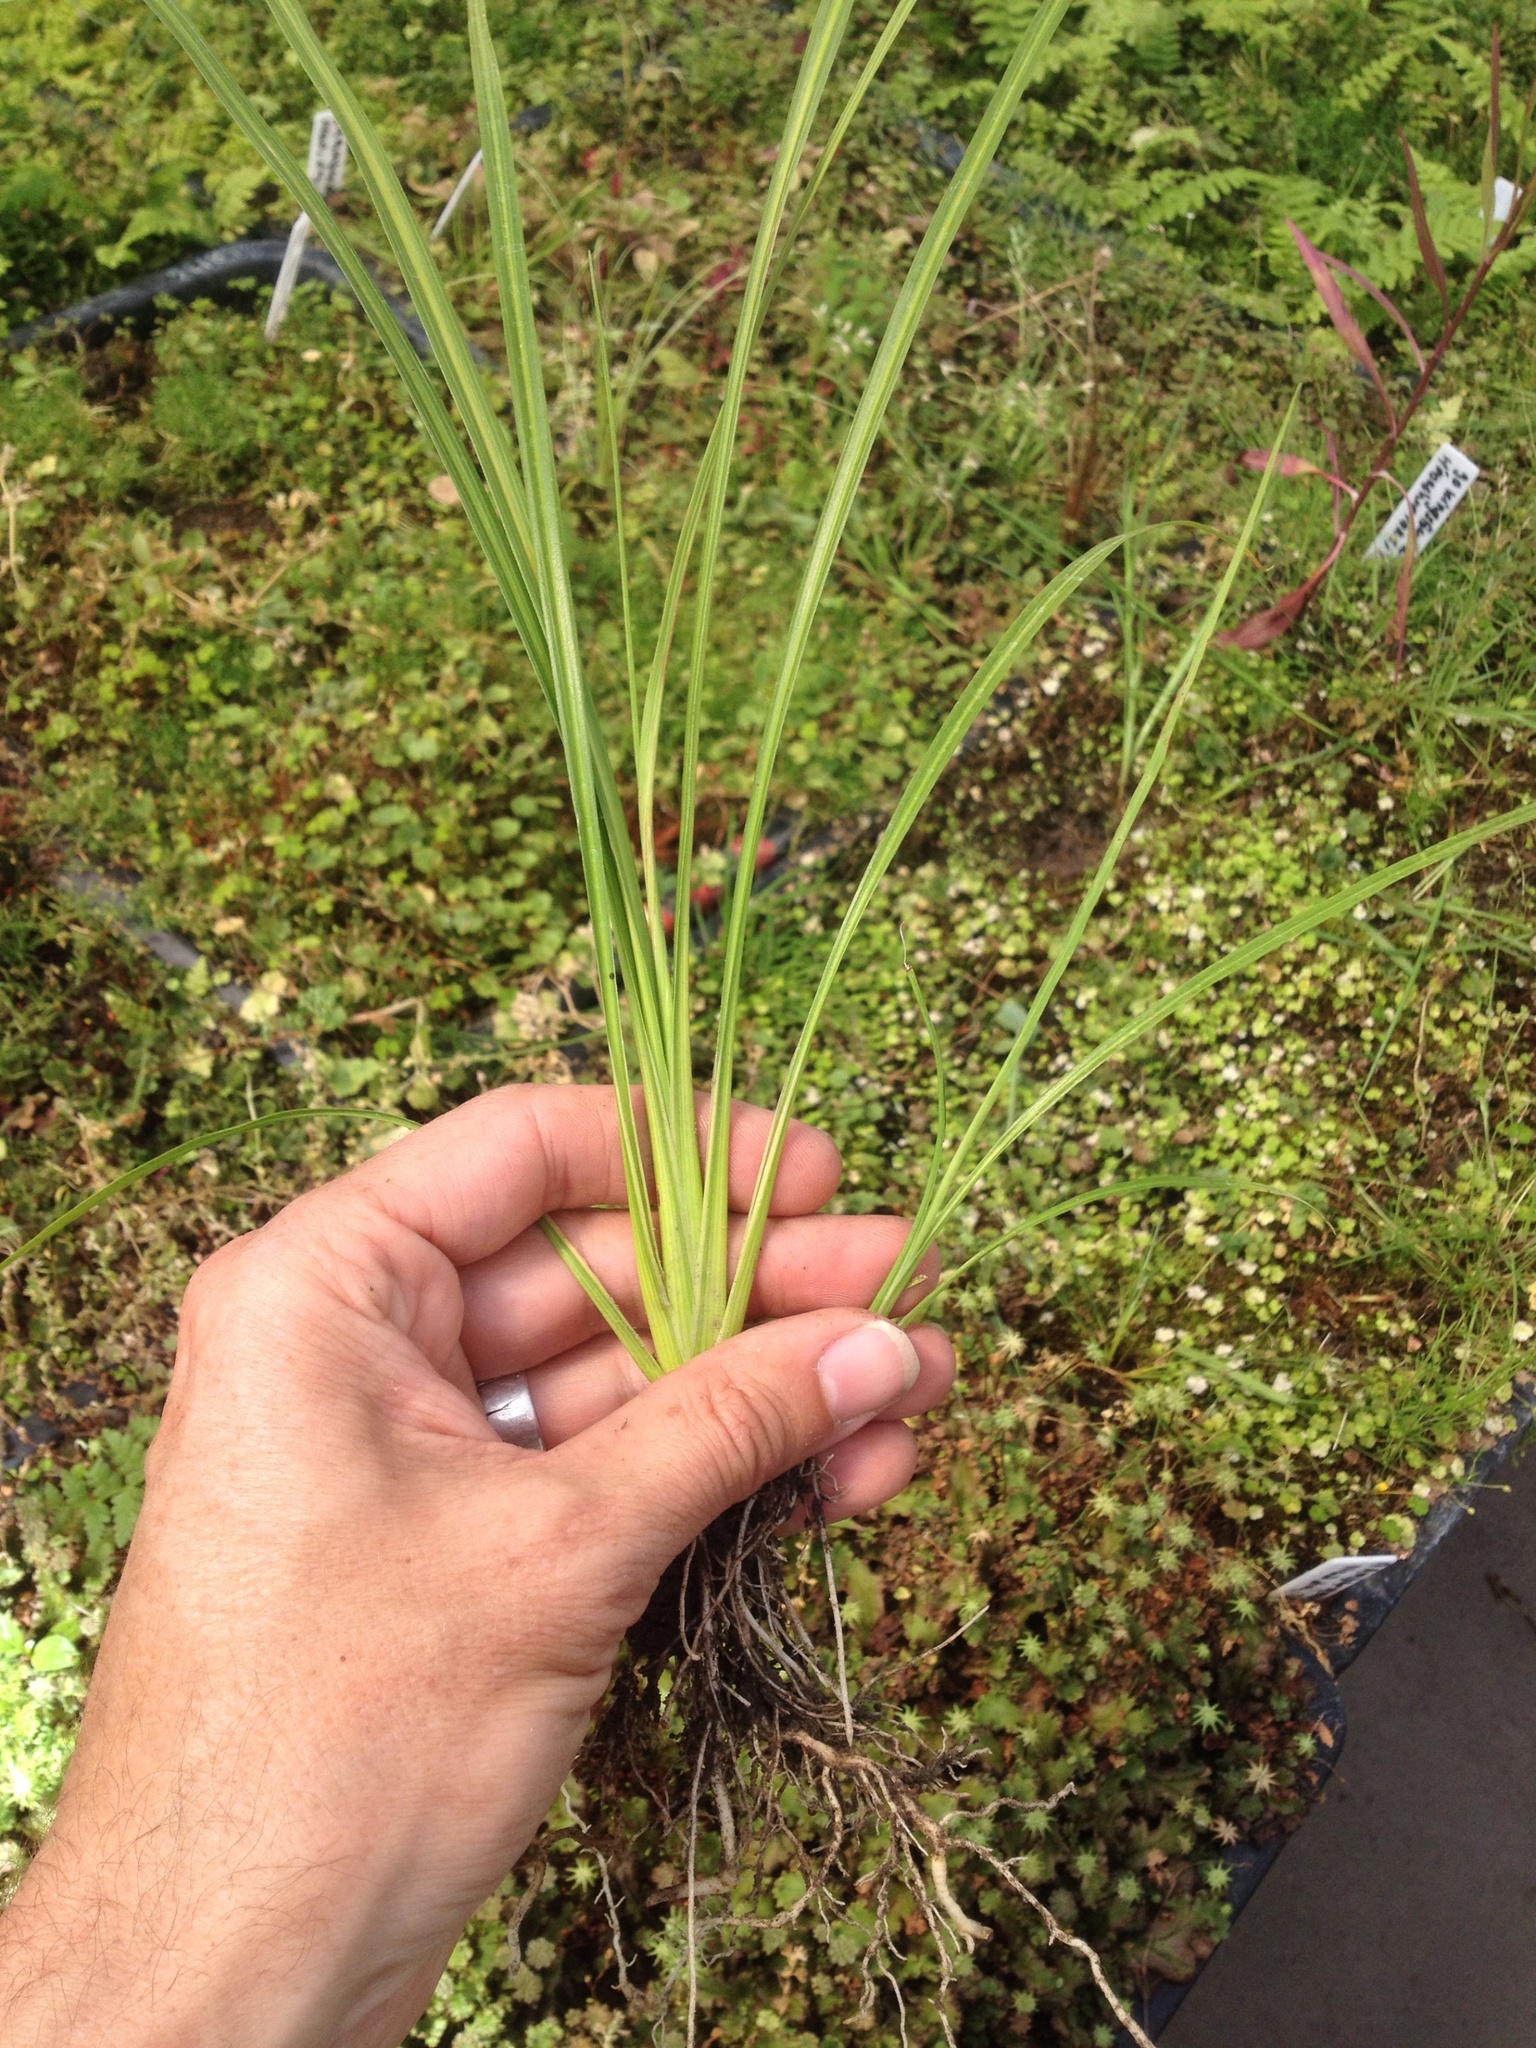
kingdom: Plantae
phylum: Tracheophyta
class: Liliopsida
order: Asparagales
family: Asparagaceae
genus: Cordyline
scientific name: Cordyline australis
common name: Cabbage-palm
